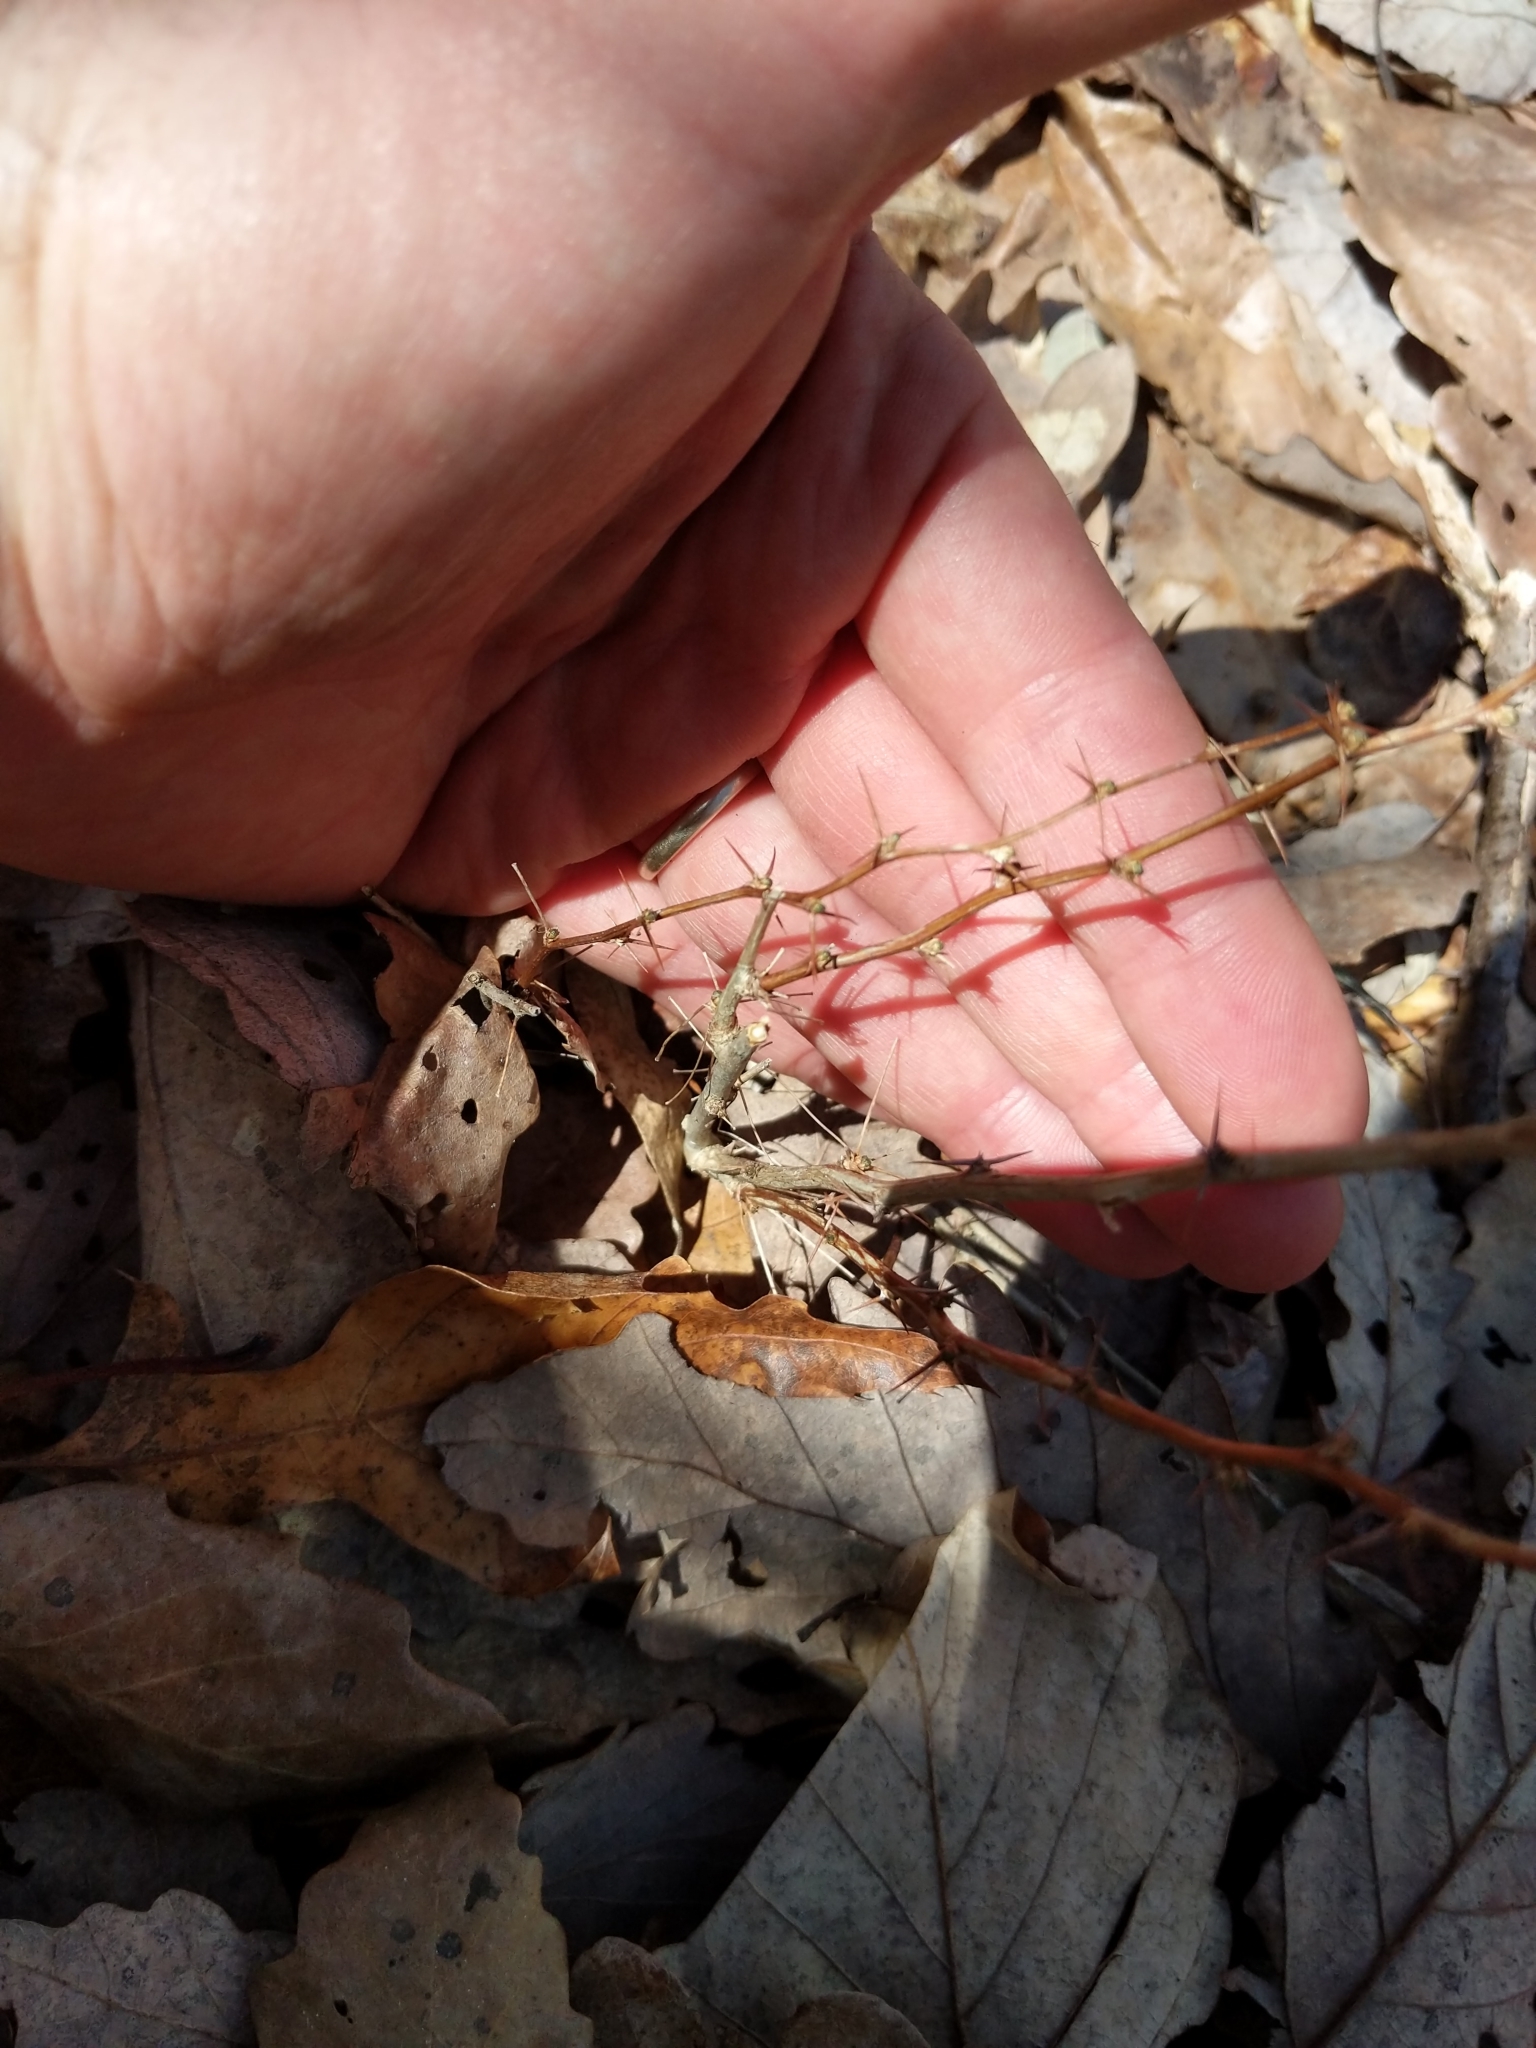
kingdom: Plantae
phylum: Tracheophyta
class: Magnoliopsida
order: Ranunculales
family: Berberidaceae
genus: Berberis
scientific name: Berberis thunbergii
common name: Japanese barberry
